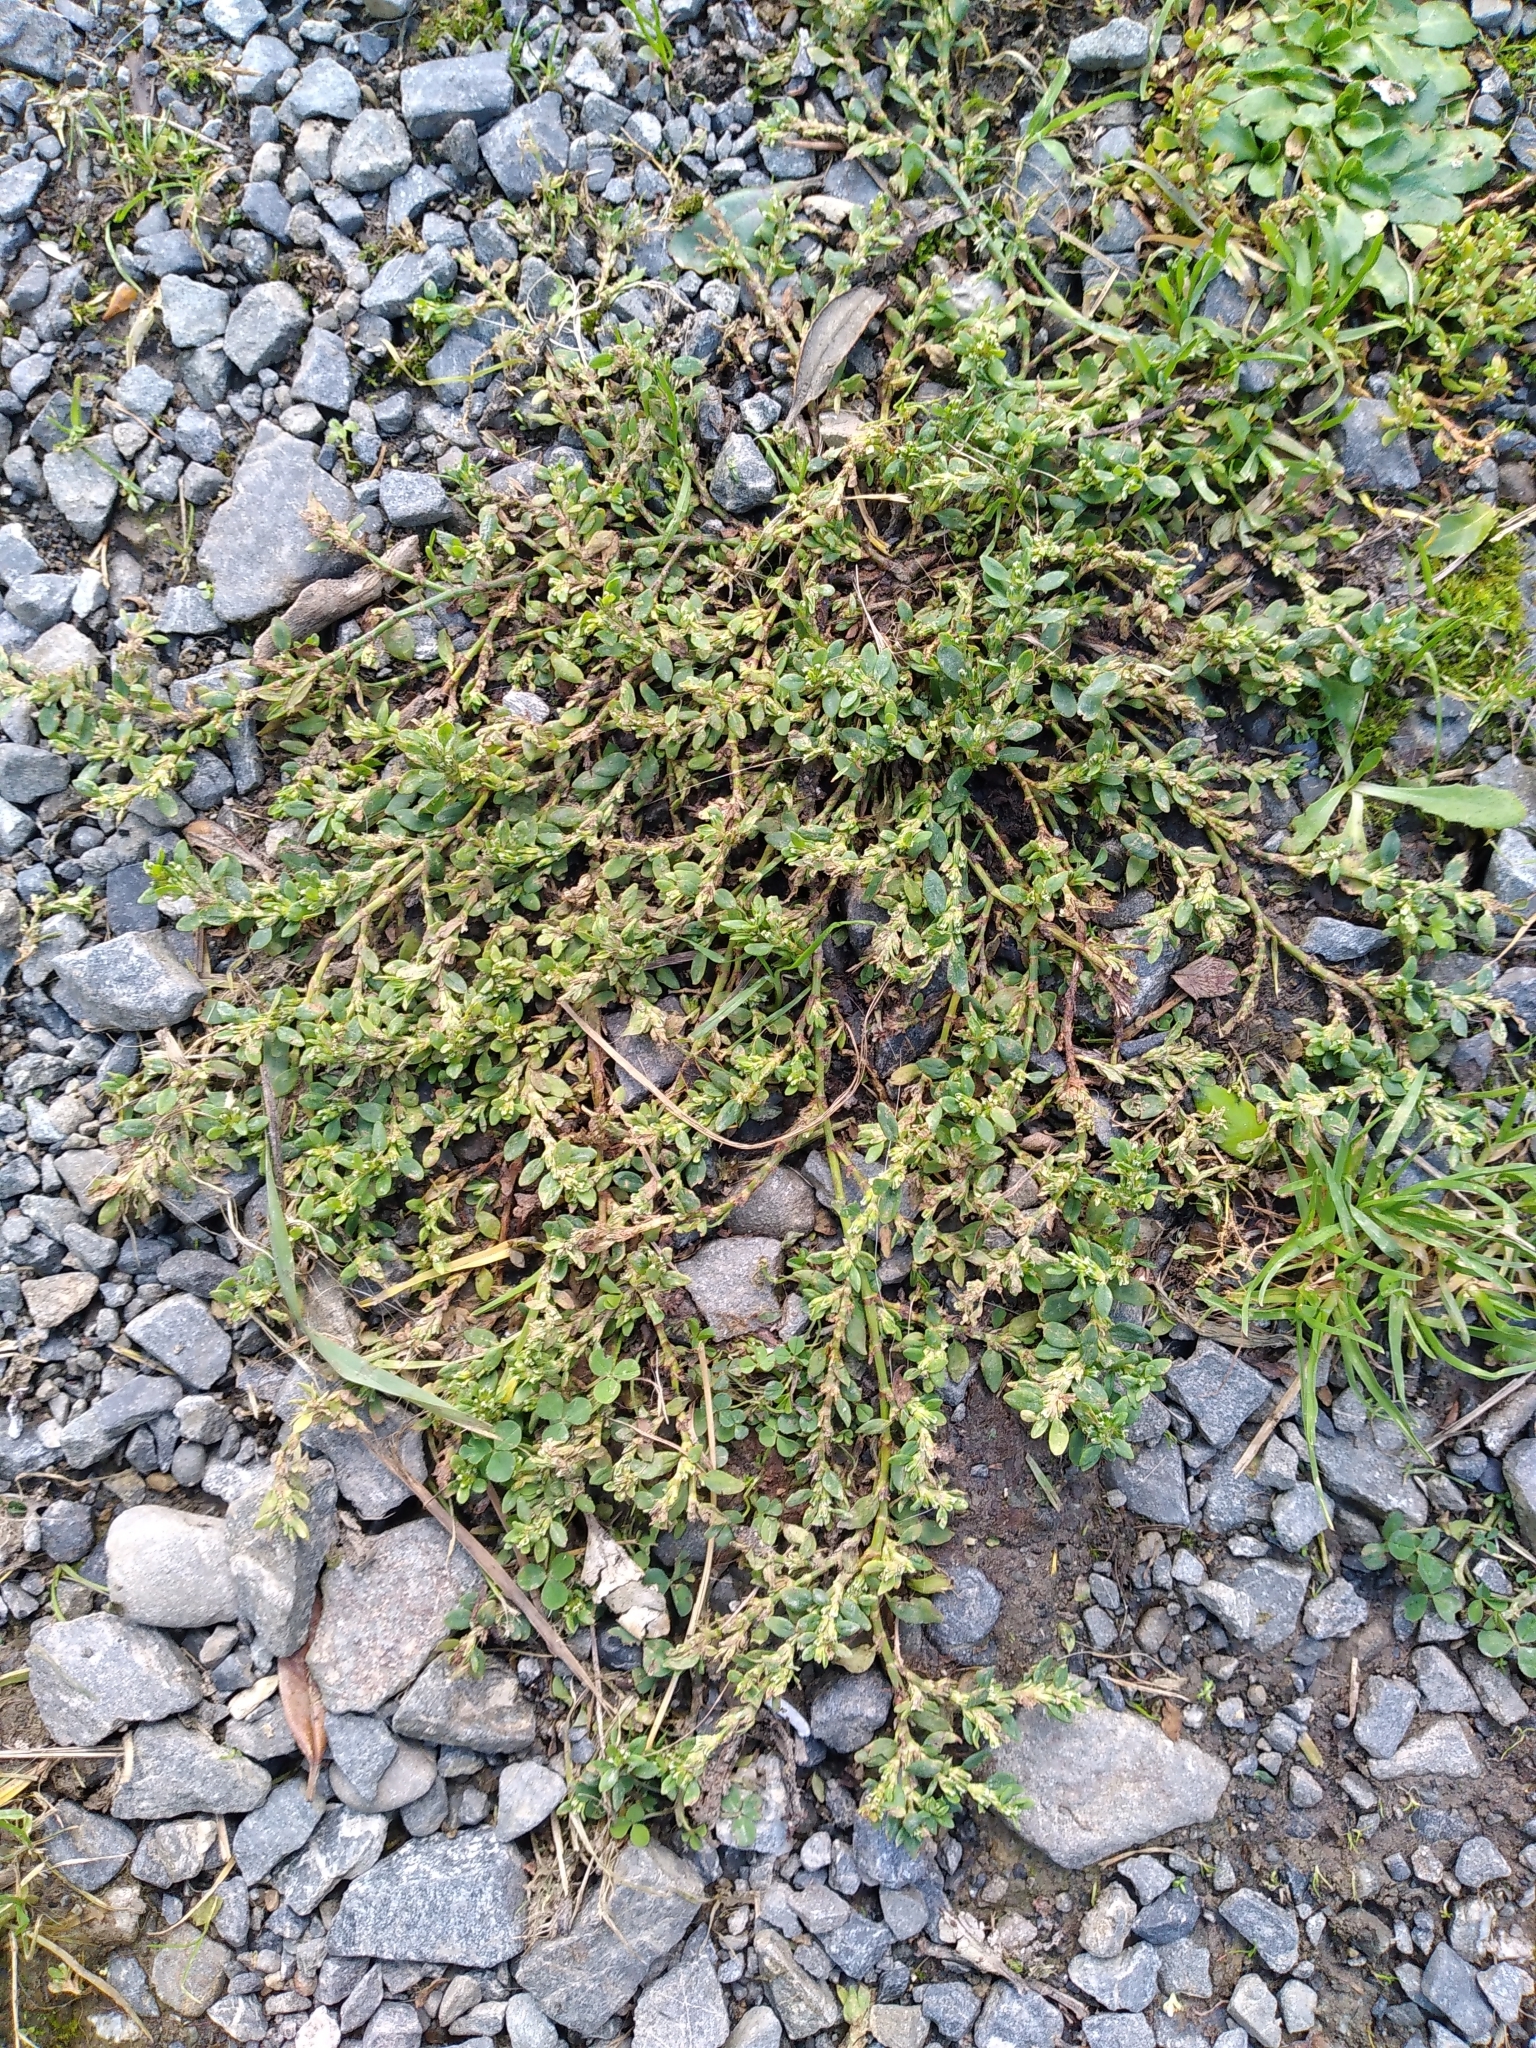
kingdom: Plantae
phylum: Tracheophyta
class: Magnoliopsida
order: Caryophyllales
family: Polygonaceae
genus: Polygonum
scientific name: Polygonum aviculare
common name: Prostrate knotweed
